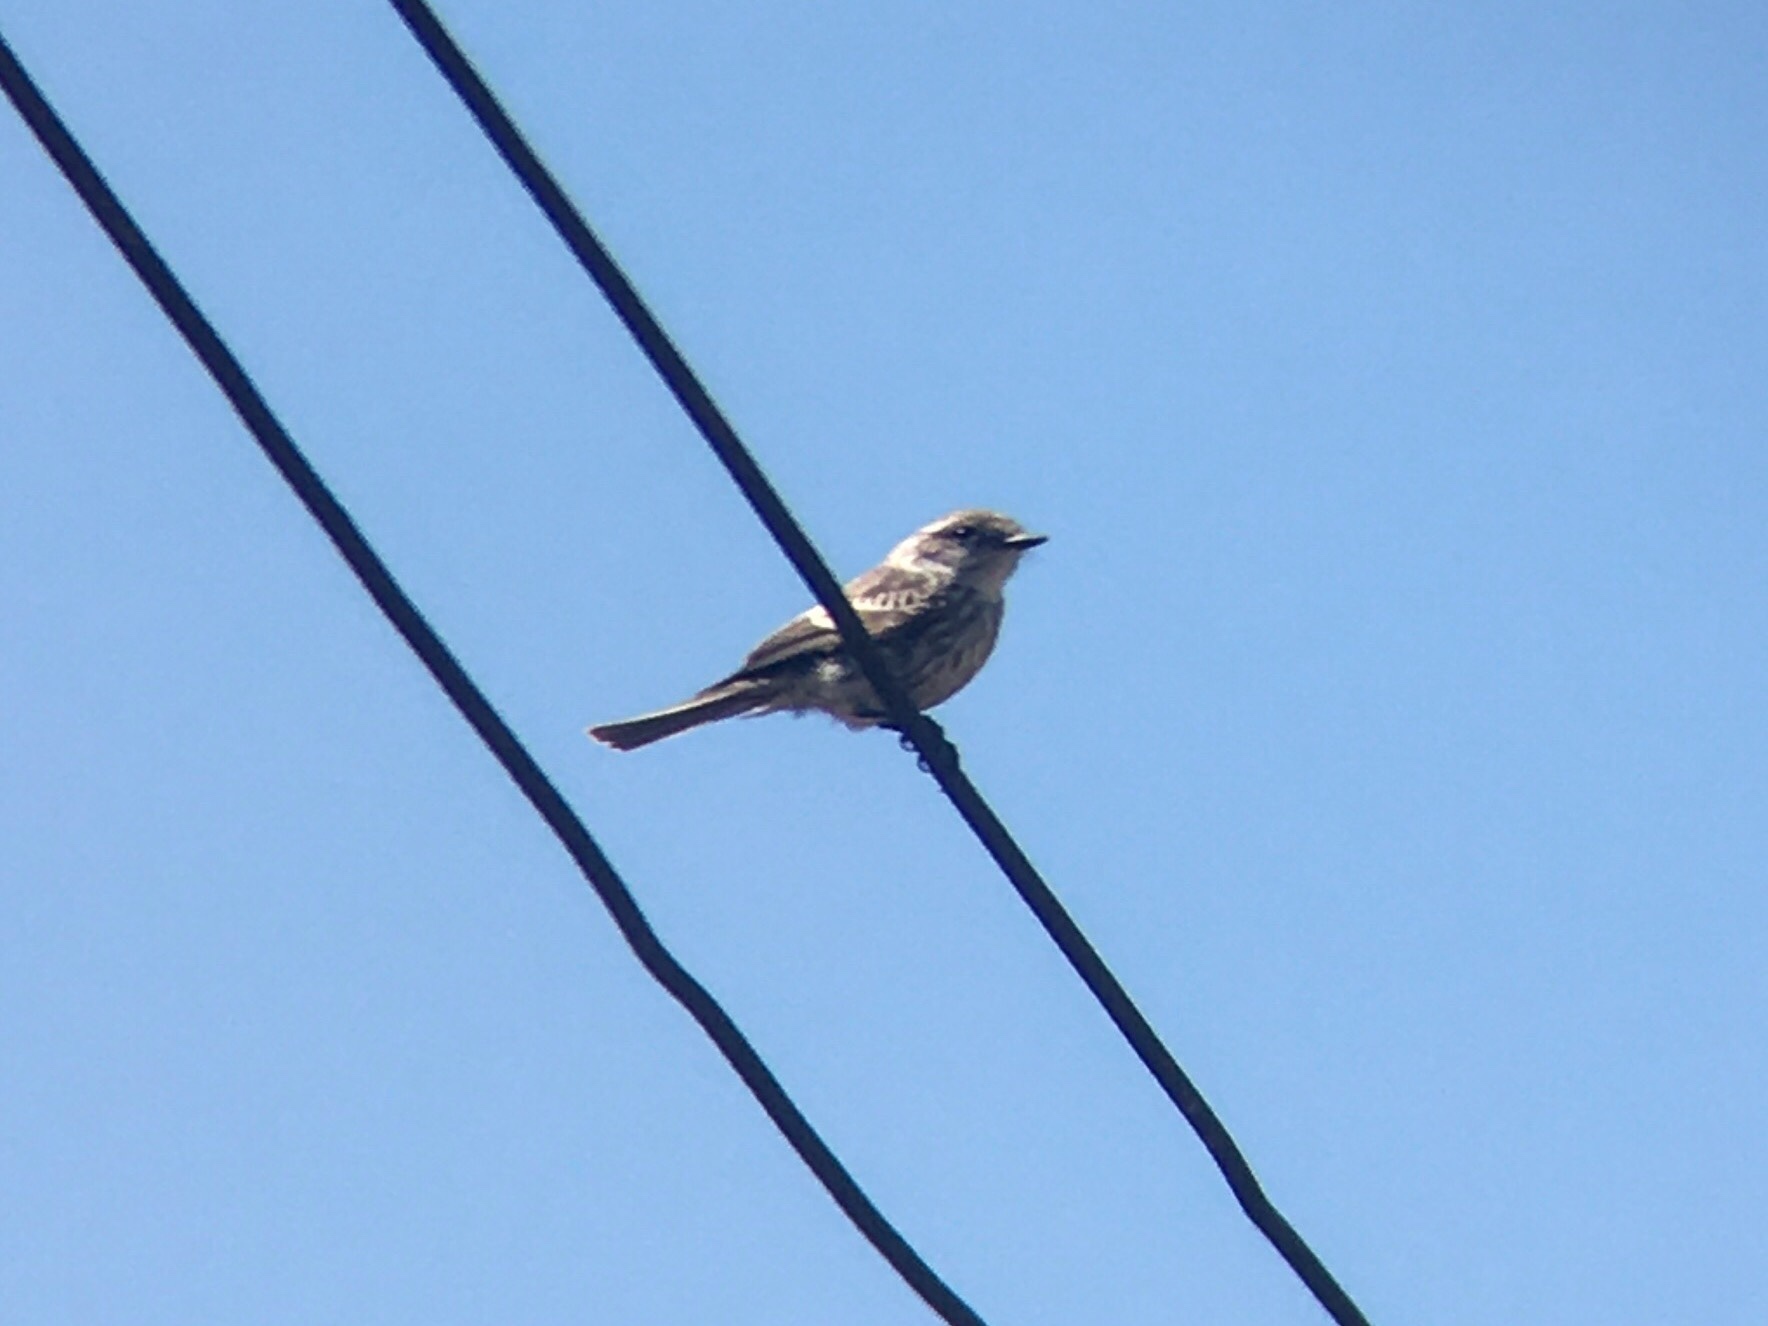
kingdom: Animalia
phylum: Chordata
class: Aves
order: Passeriformes
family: Tyrannidae
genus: Pyrocephalus
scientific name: Pyrocephalus rubinus
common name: Vermilion flycatcher
